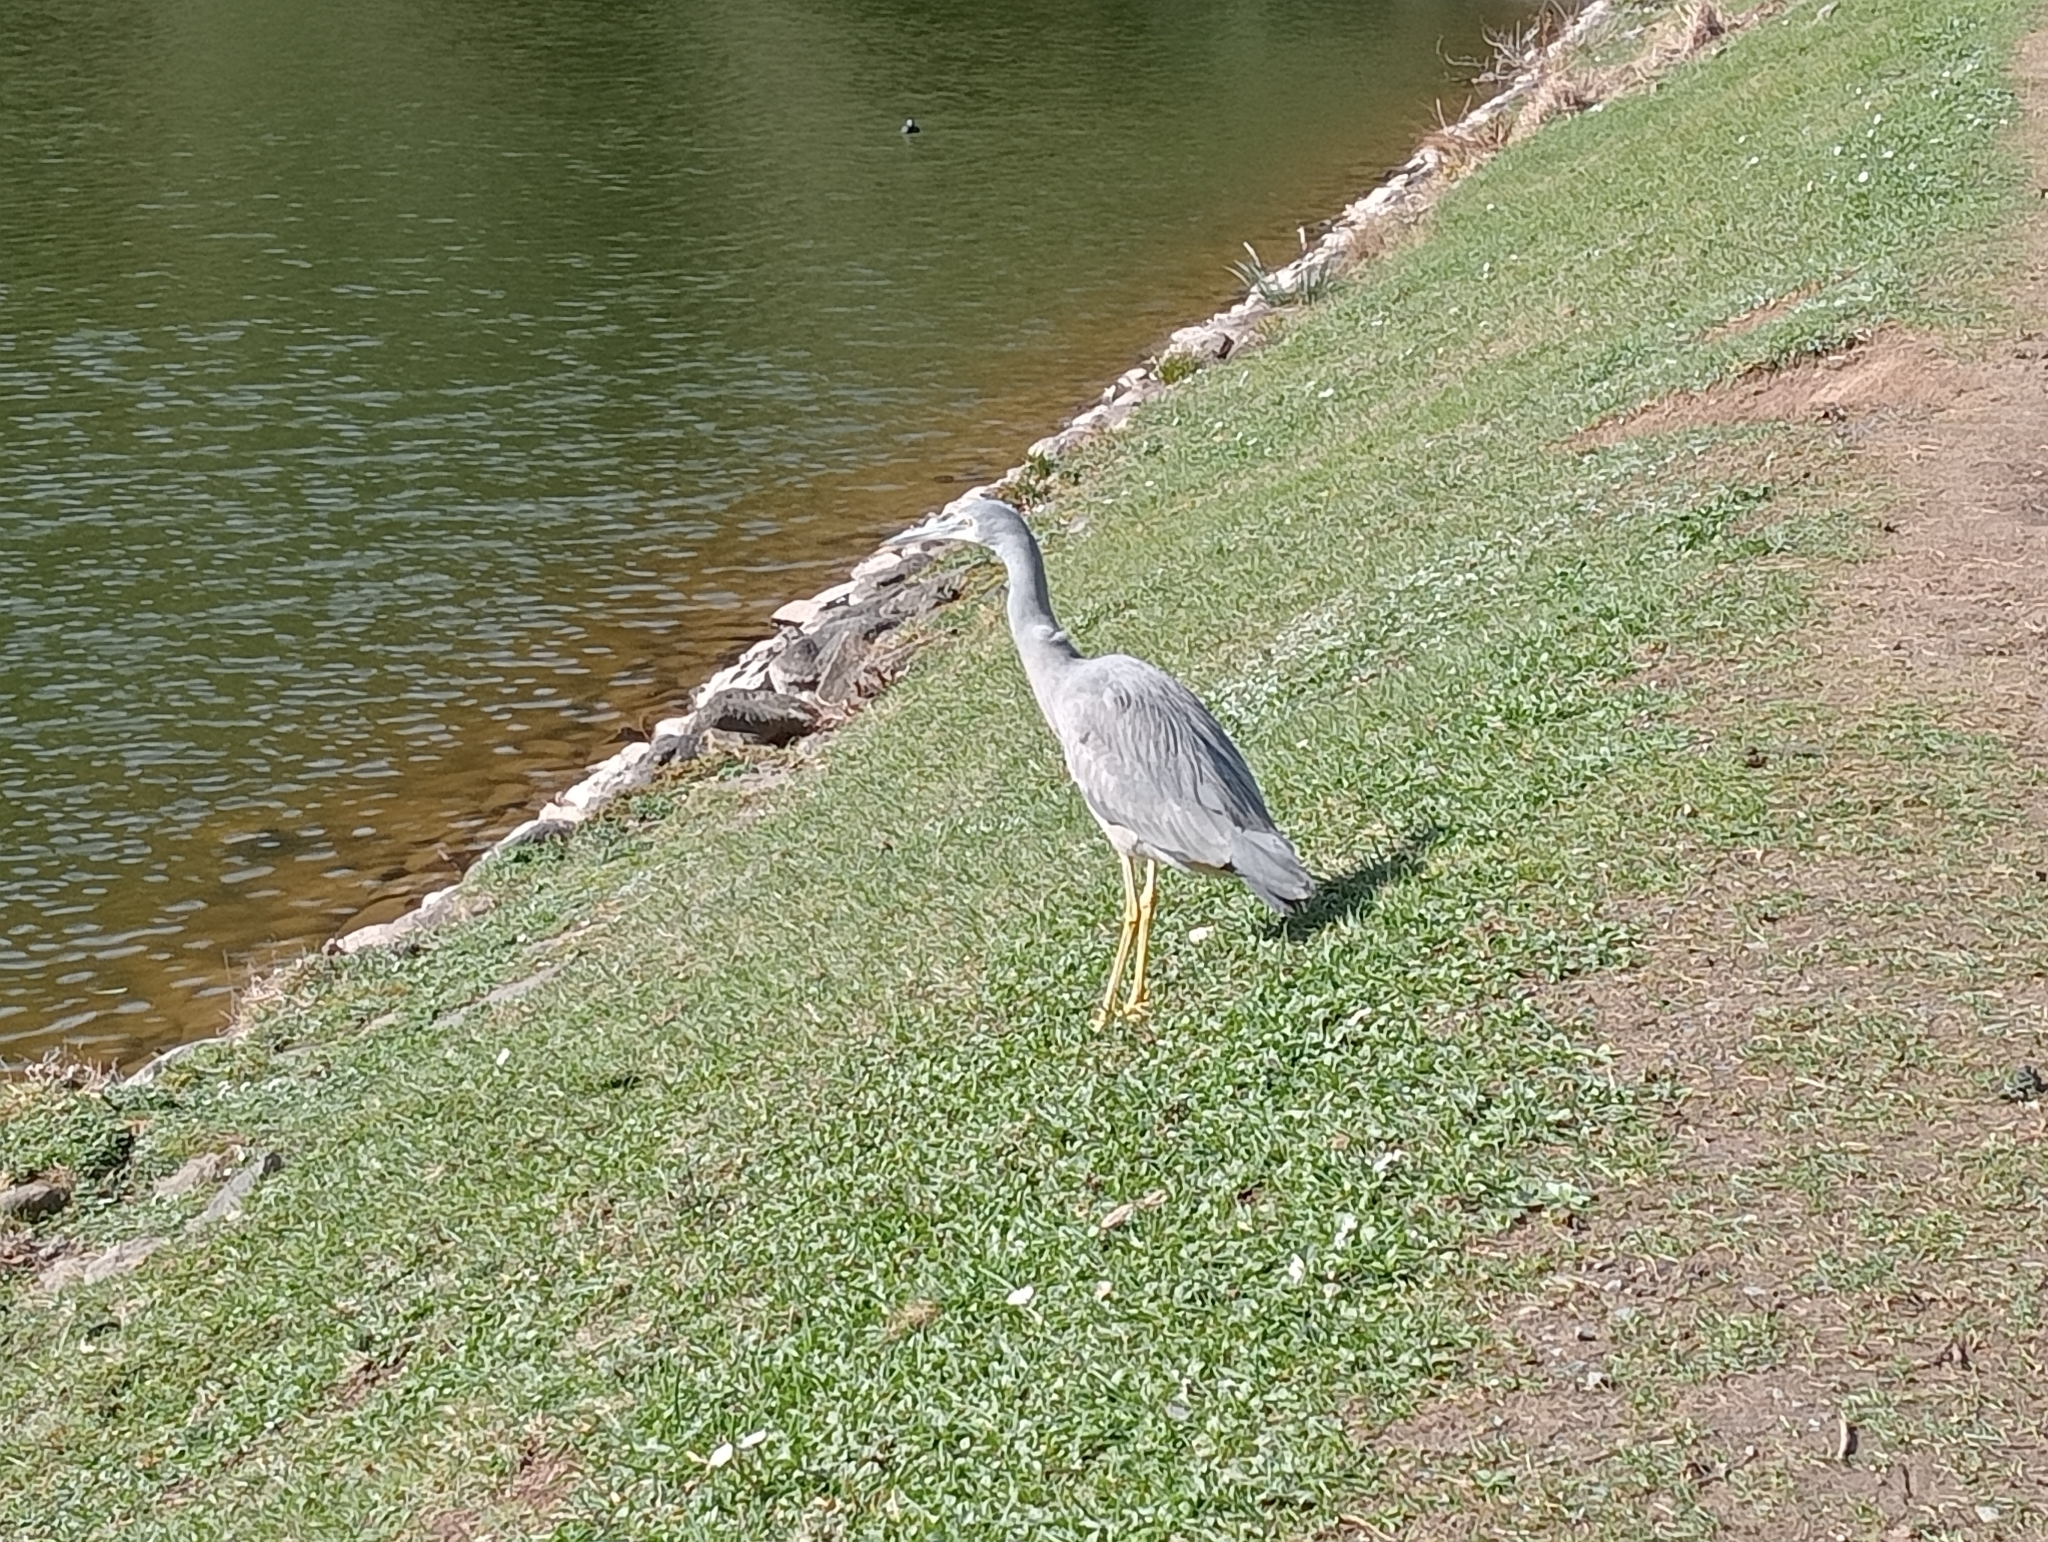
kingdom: Animalia
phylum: Chordata
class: Aves
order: Pelecaniformes
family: Ardeidae
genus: Egretta
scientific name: Egretta novaehollandiae
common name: White-faced heron
